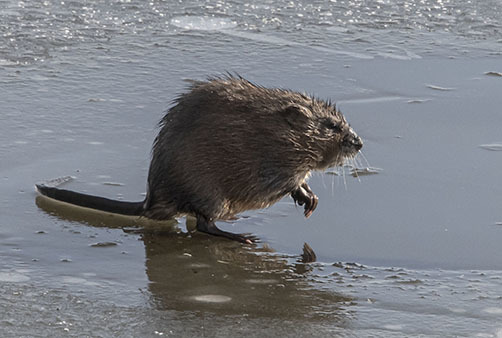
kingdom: Animalia
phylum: Chordata
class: Mammalia
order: Rodentia
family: Cricetidae
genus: Ondatra
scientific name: Ondatra zibethicus
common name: Muskrat
